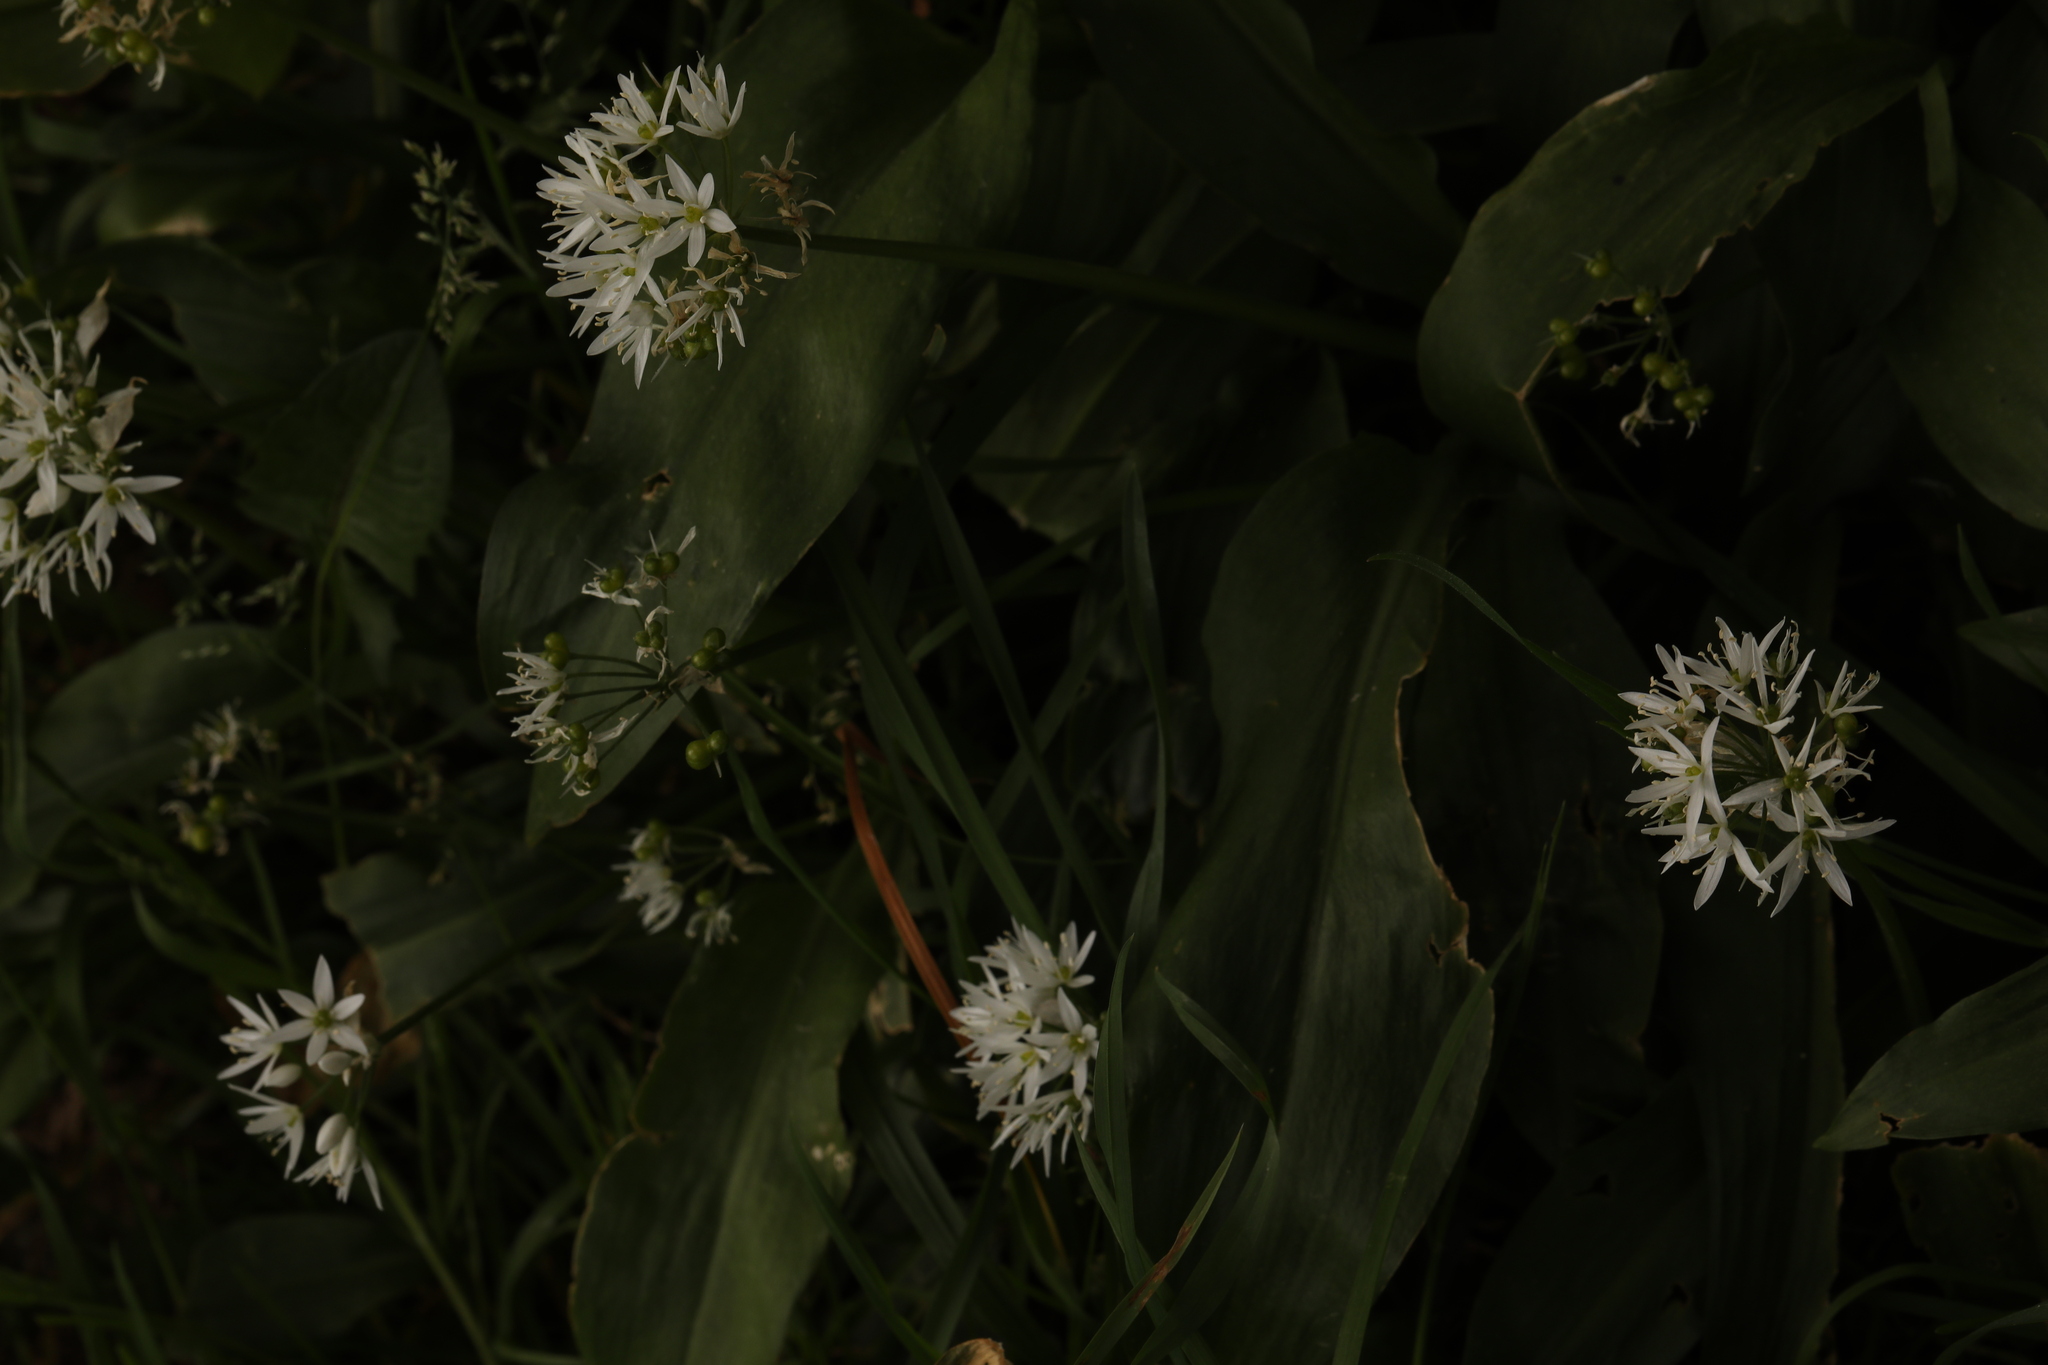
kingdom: Plantae
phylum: Tracheophyta
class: Liliopsida
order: Asparagales
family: Amaryllidaceae
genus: Allium
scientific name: Allium ursinum
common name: Ramsons
